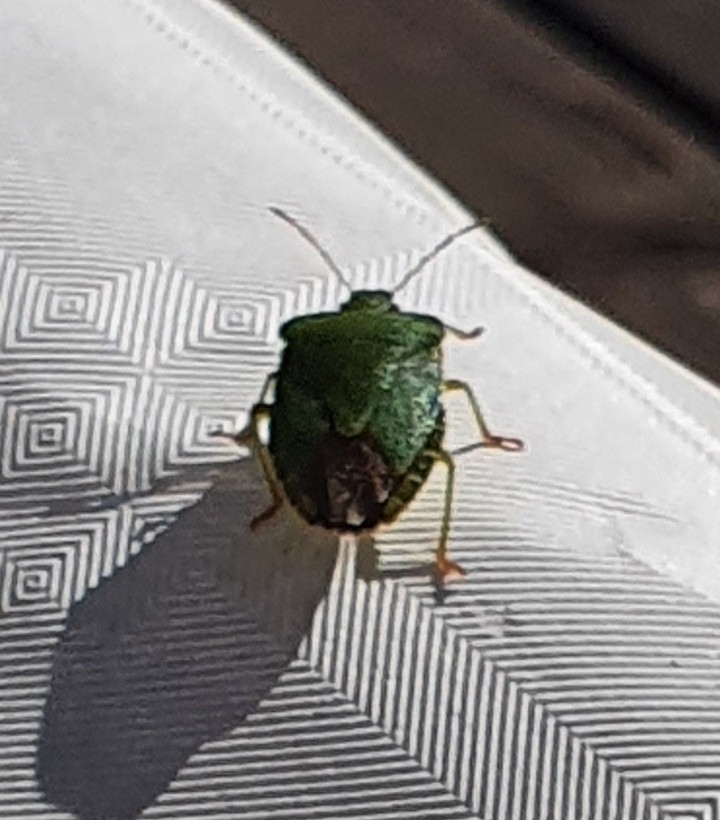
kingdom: Animalia
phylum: Arthropoda
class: Insecta
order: Hemiptera
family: Pentatomidae
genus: Palomena
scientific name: Palomena prasina
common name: Green shieldbug
